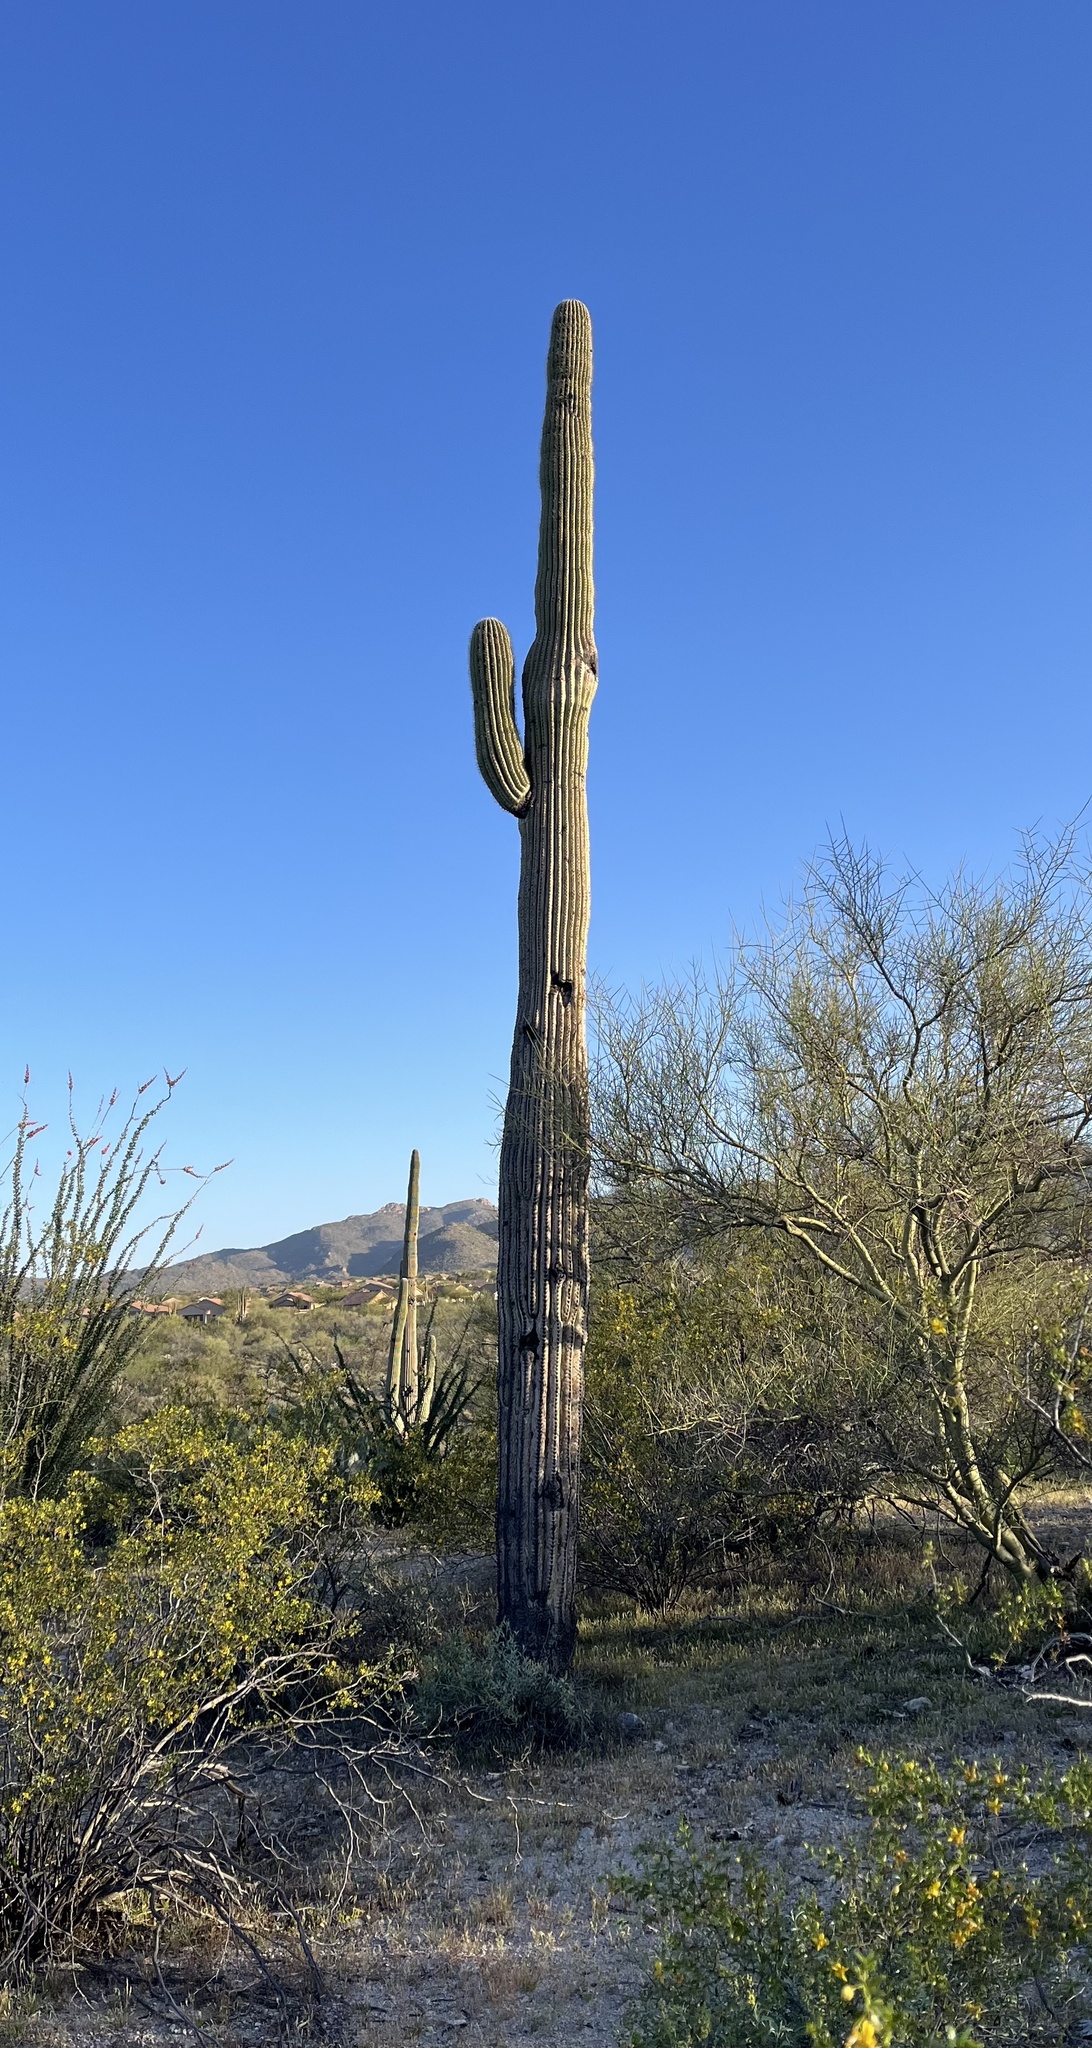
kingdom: Plantae
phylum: Tracheophyta
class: Magnoliopsida
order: Caryophyllales
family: Cactaceae
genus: Carnegiea
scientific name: Carnegiea gigantea
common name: Saguaro
